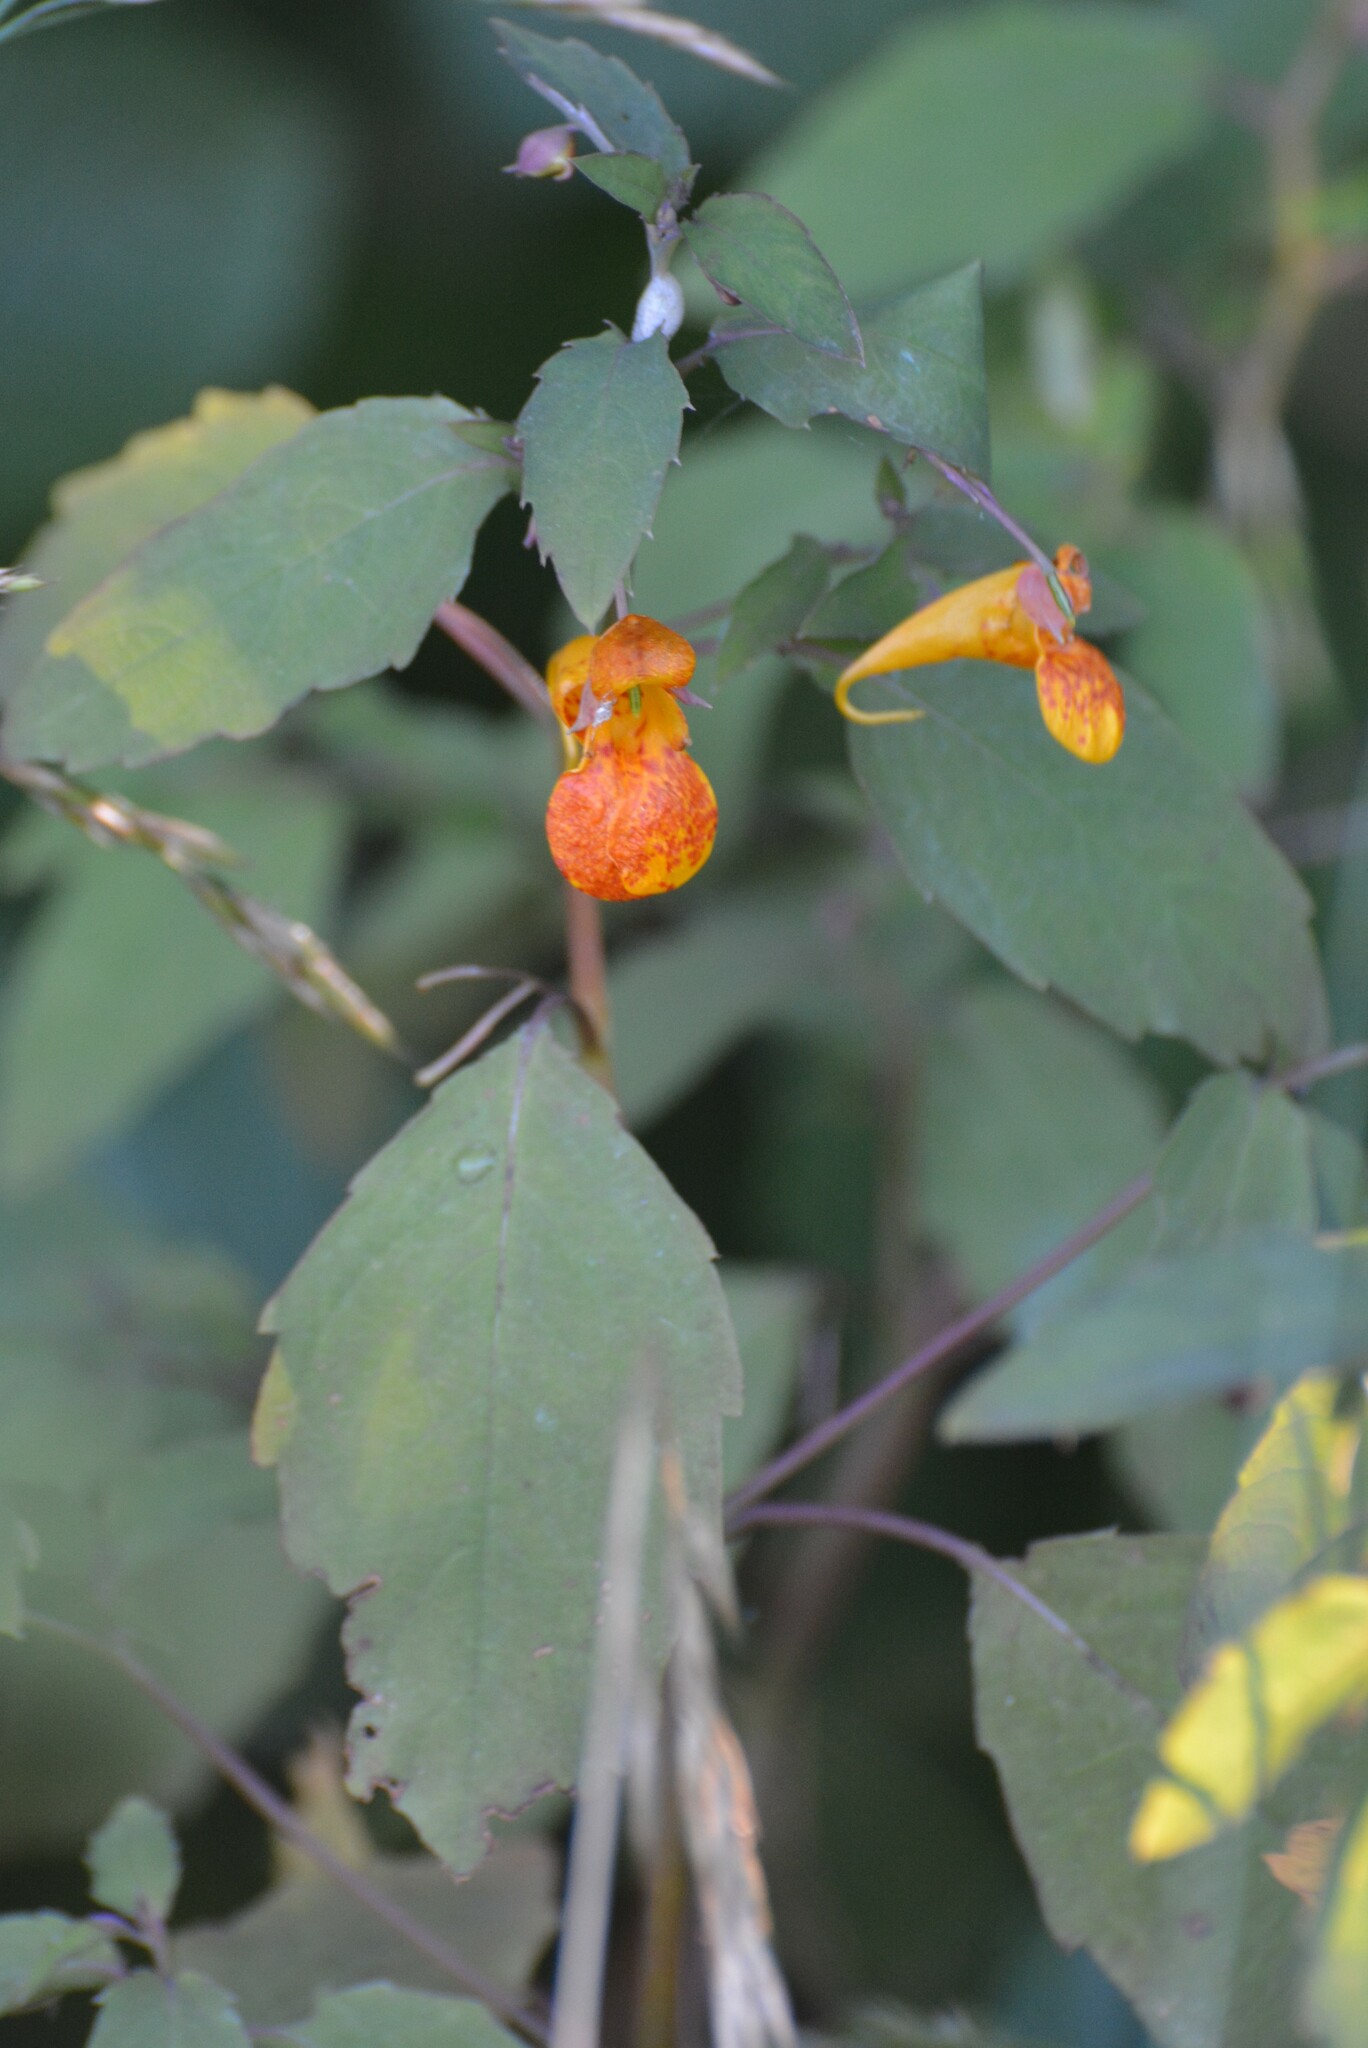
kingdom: Plantae
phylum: Tracheophyta
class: Magnoliopsida
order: Ericales
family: Balsaminaceae
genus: Impatiens
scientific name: Impatiens capensis
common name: Orange balsam
